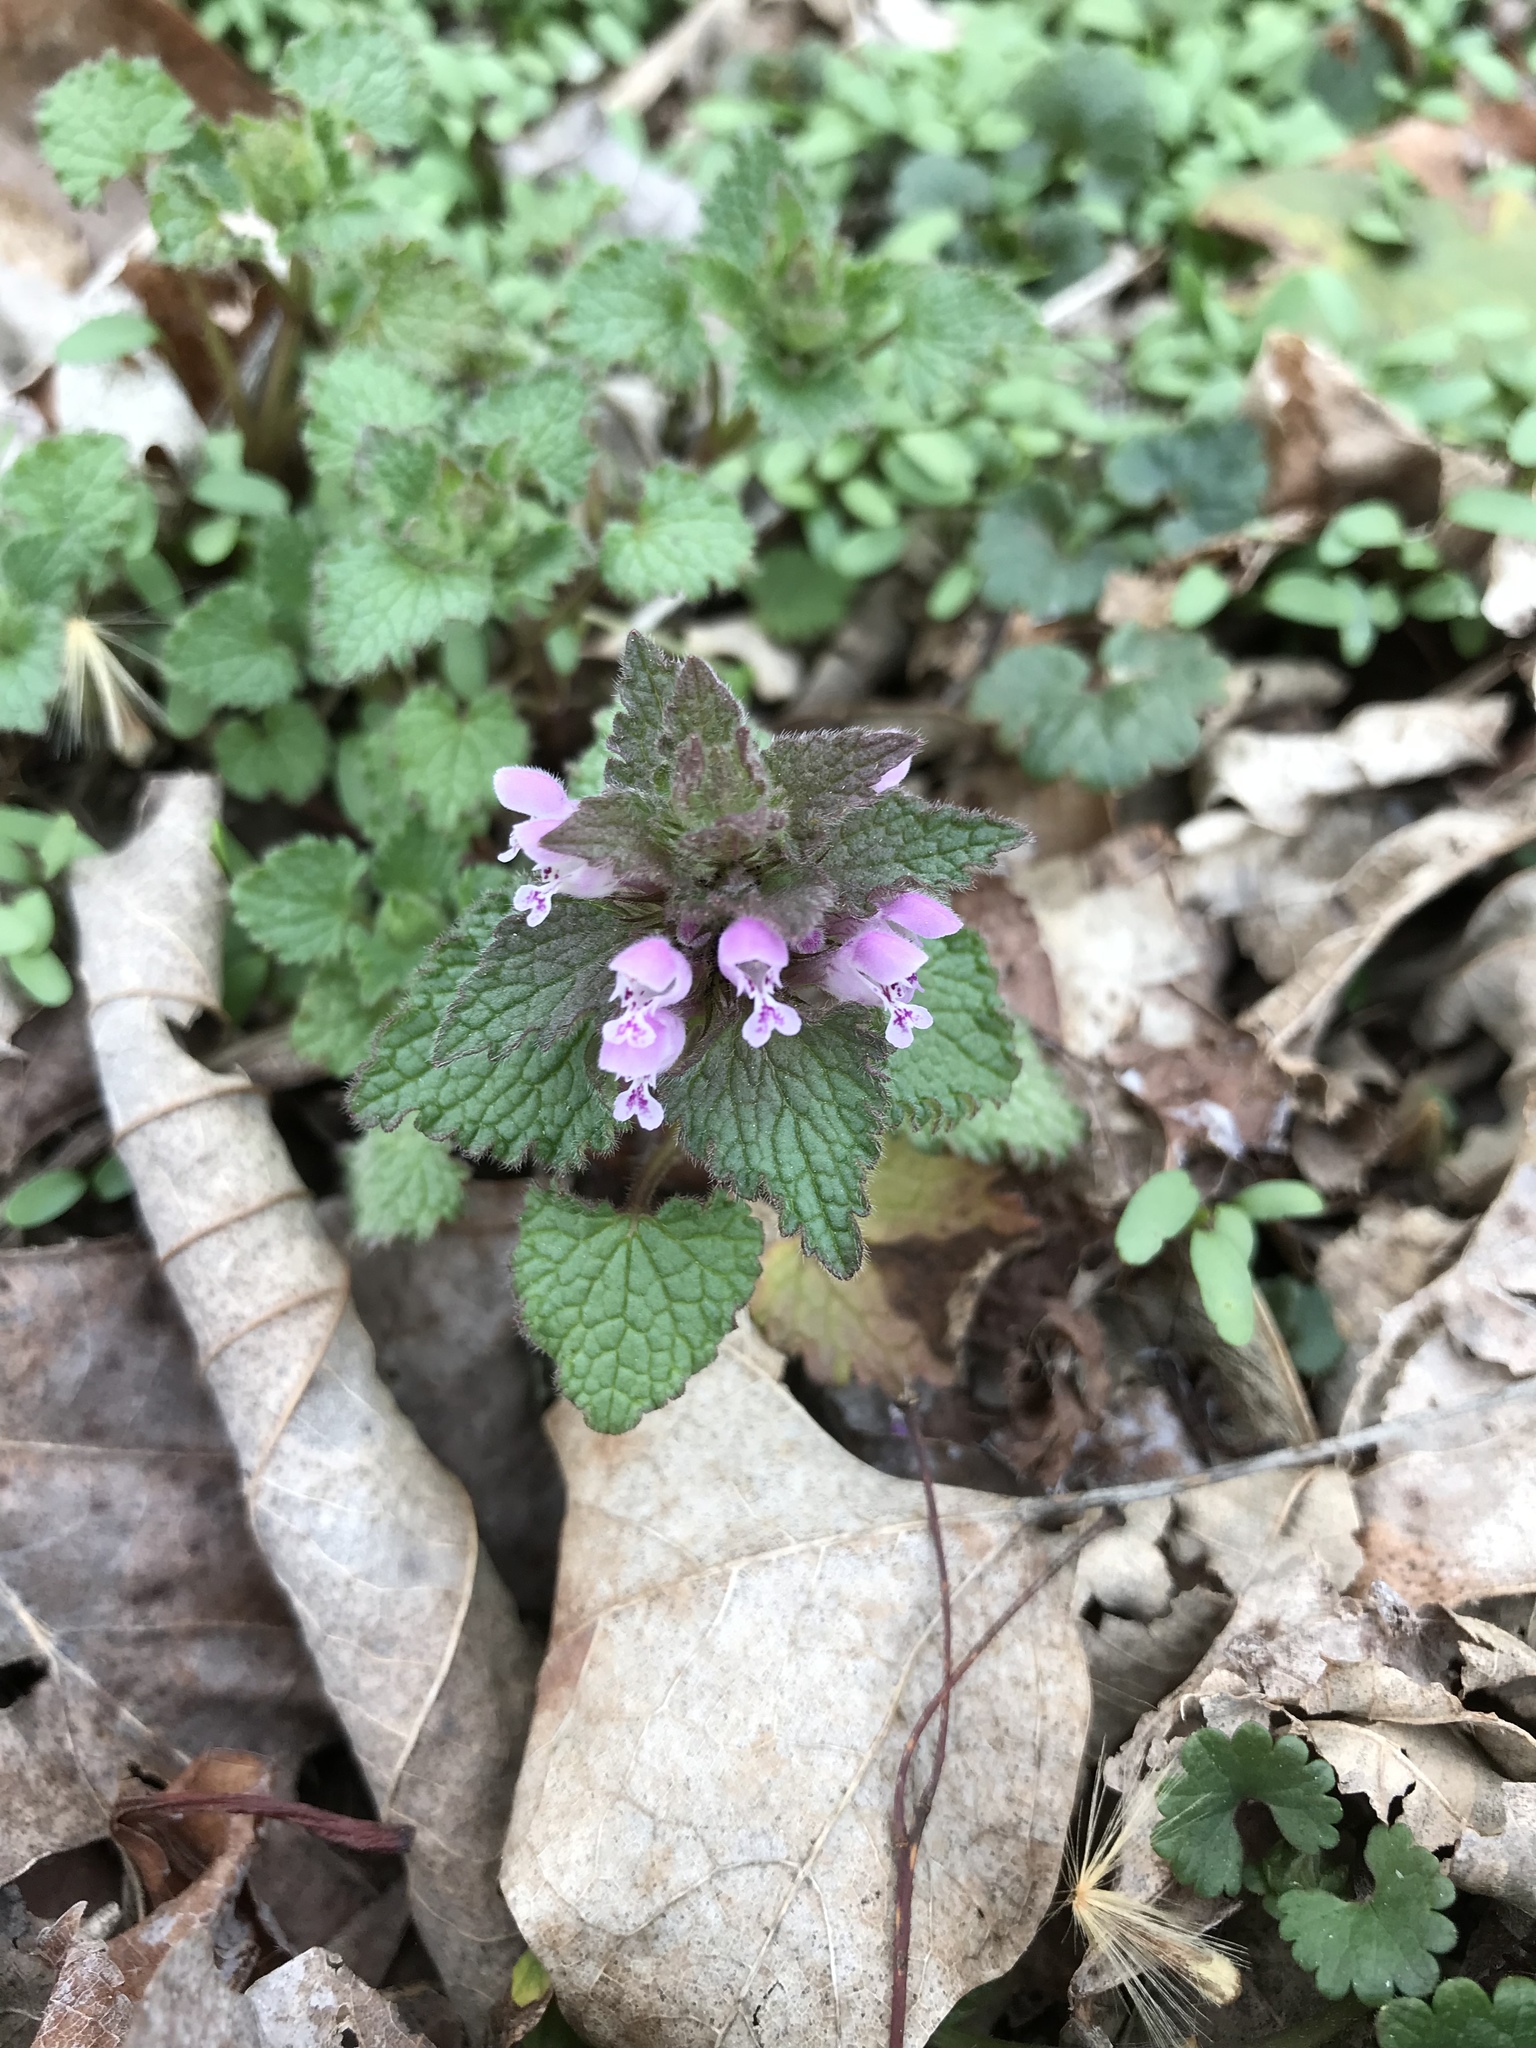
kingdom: Plantae
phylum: Tracheophyta
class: Magnoliopsida
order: Lamiales
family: Lamiaceae
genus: Lamium
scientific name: Lamium purpureum
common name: Red dead-nettle
